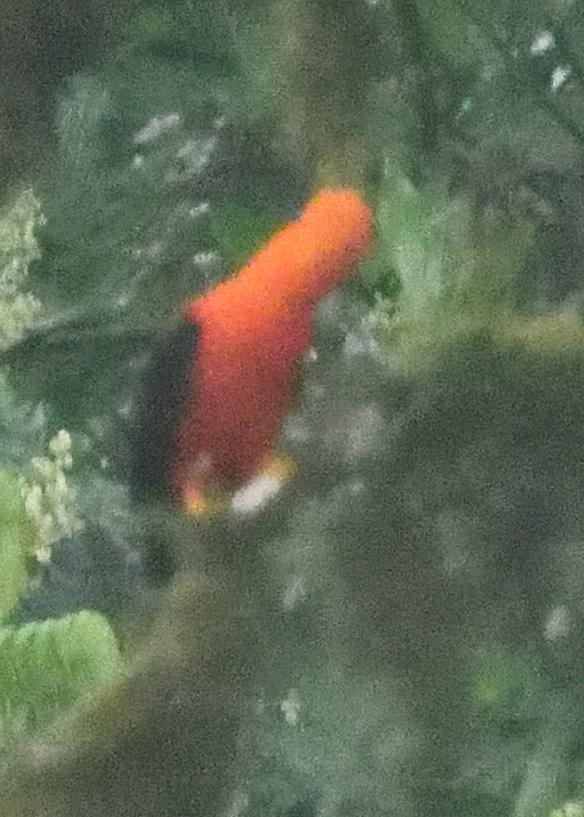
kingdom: Animalia
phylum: Chordata
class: Aves
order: Passeriformes
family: Cotingidae
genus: Rupicola
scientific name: Rupicola peruvianus
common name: Andean cock-of-the-rock
